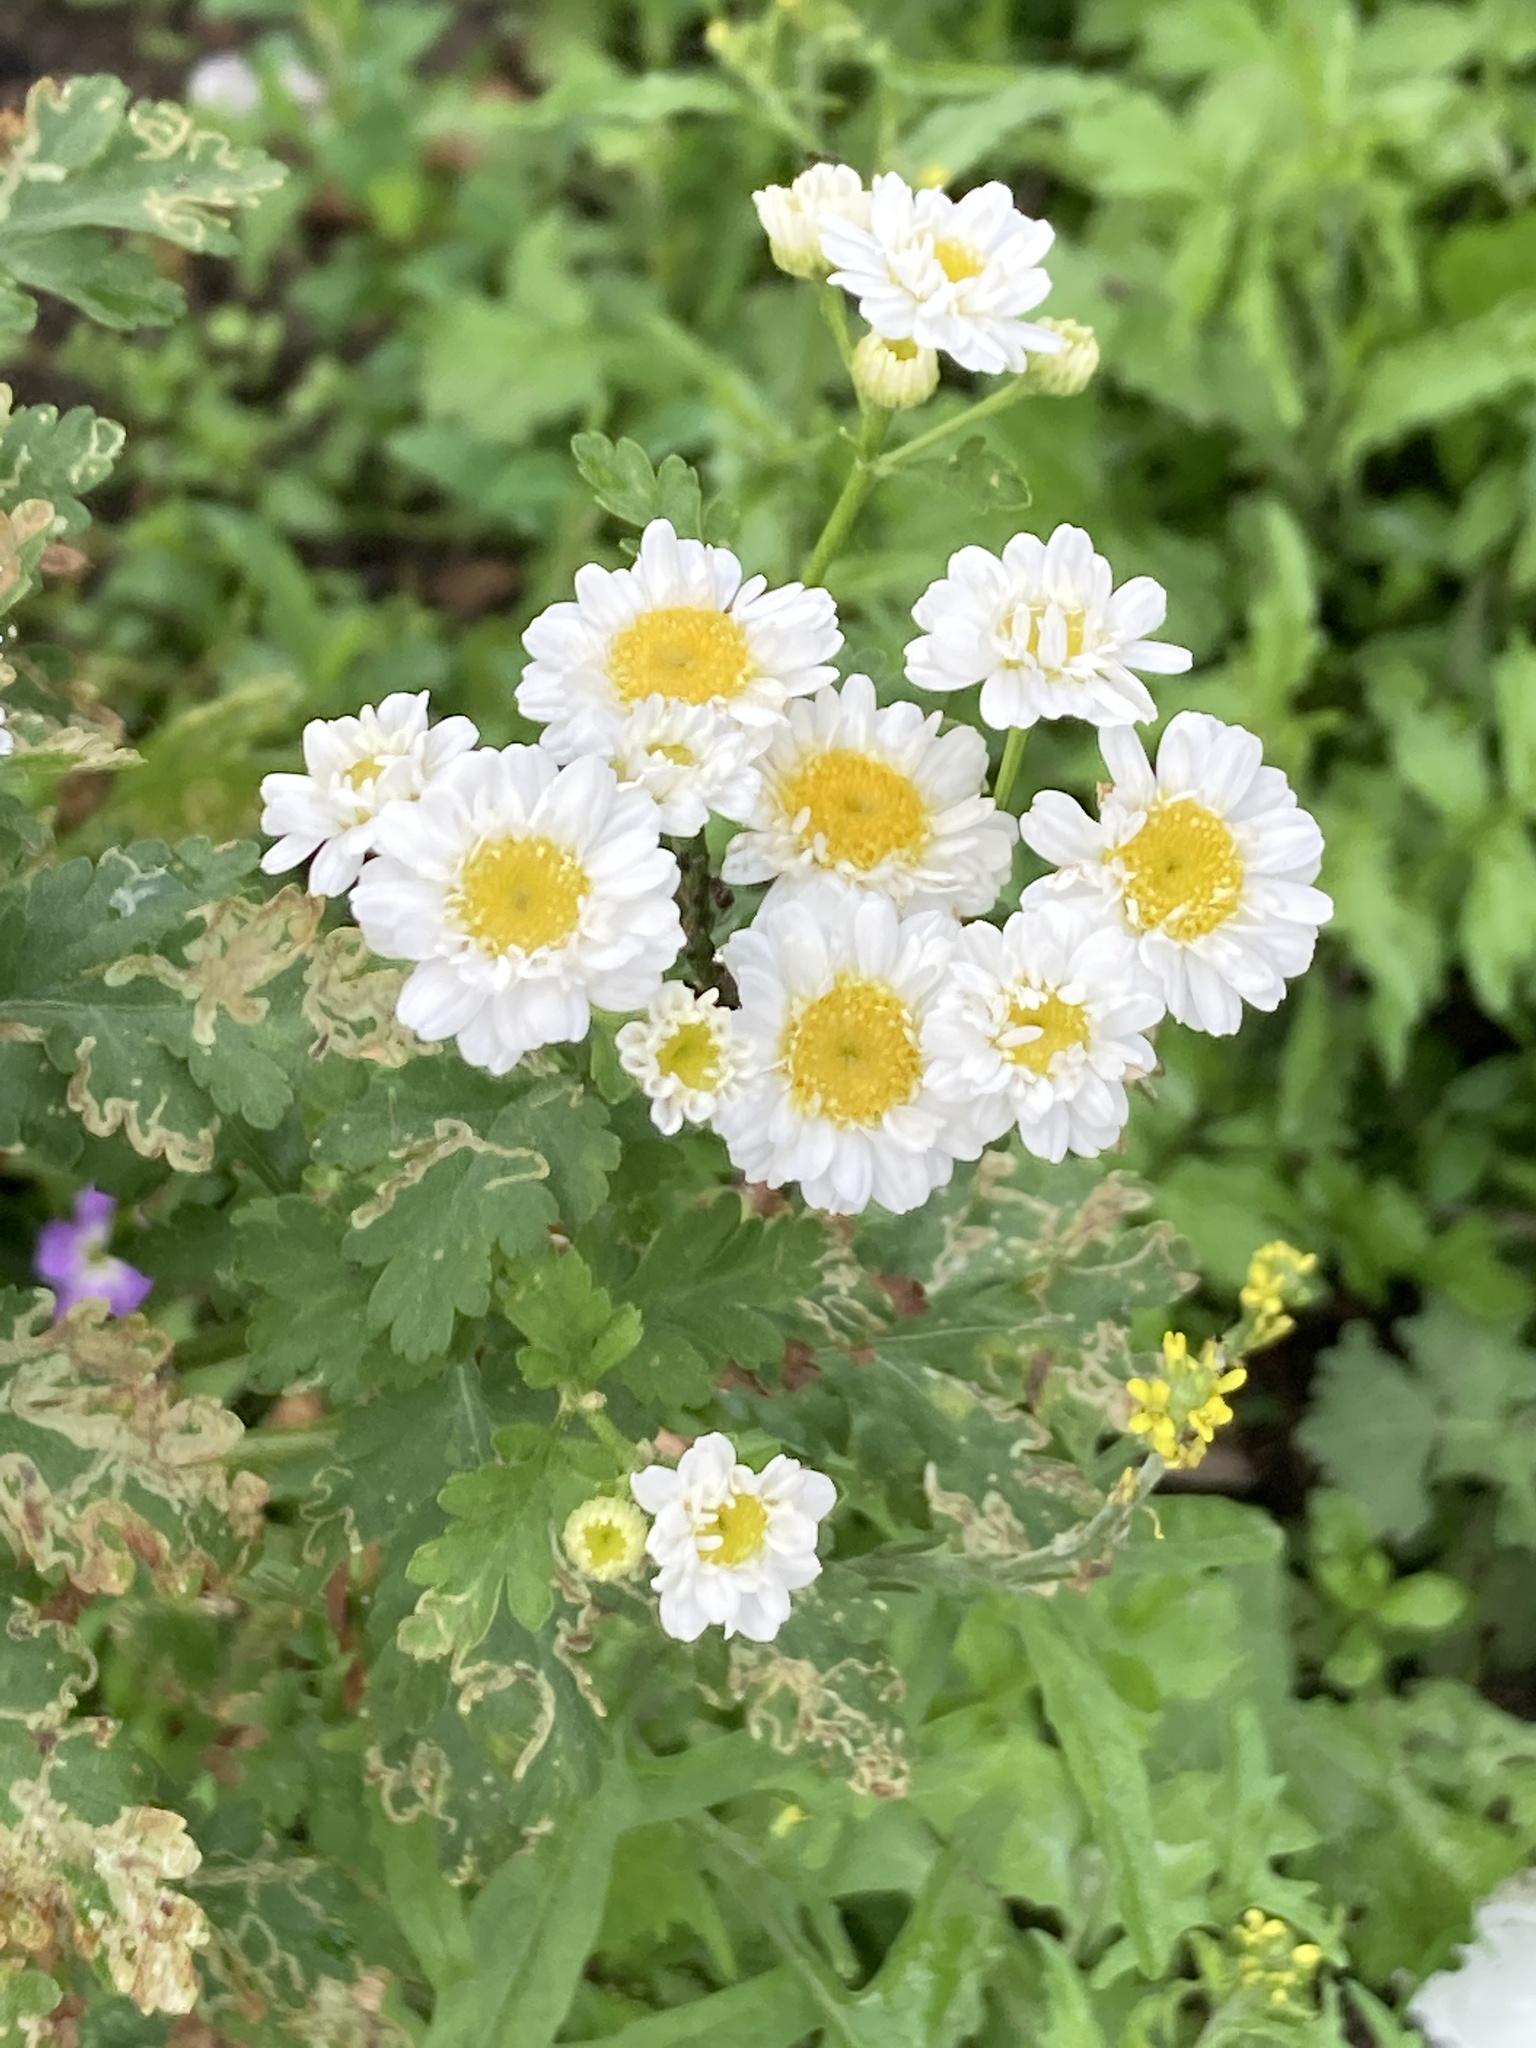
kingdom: Plantae
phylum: Tracheophyta
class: Magnoliopsida
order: Asterales
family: Asteraceae
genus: Tanacetum
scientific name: Tanacetum parthenium
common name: Feverfew
